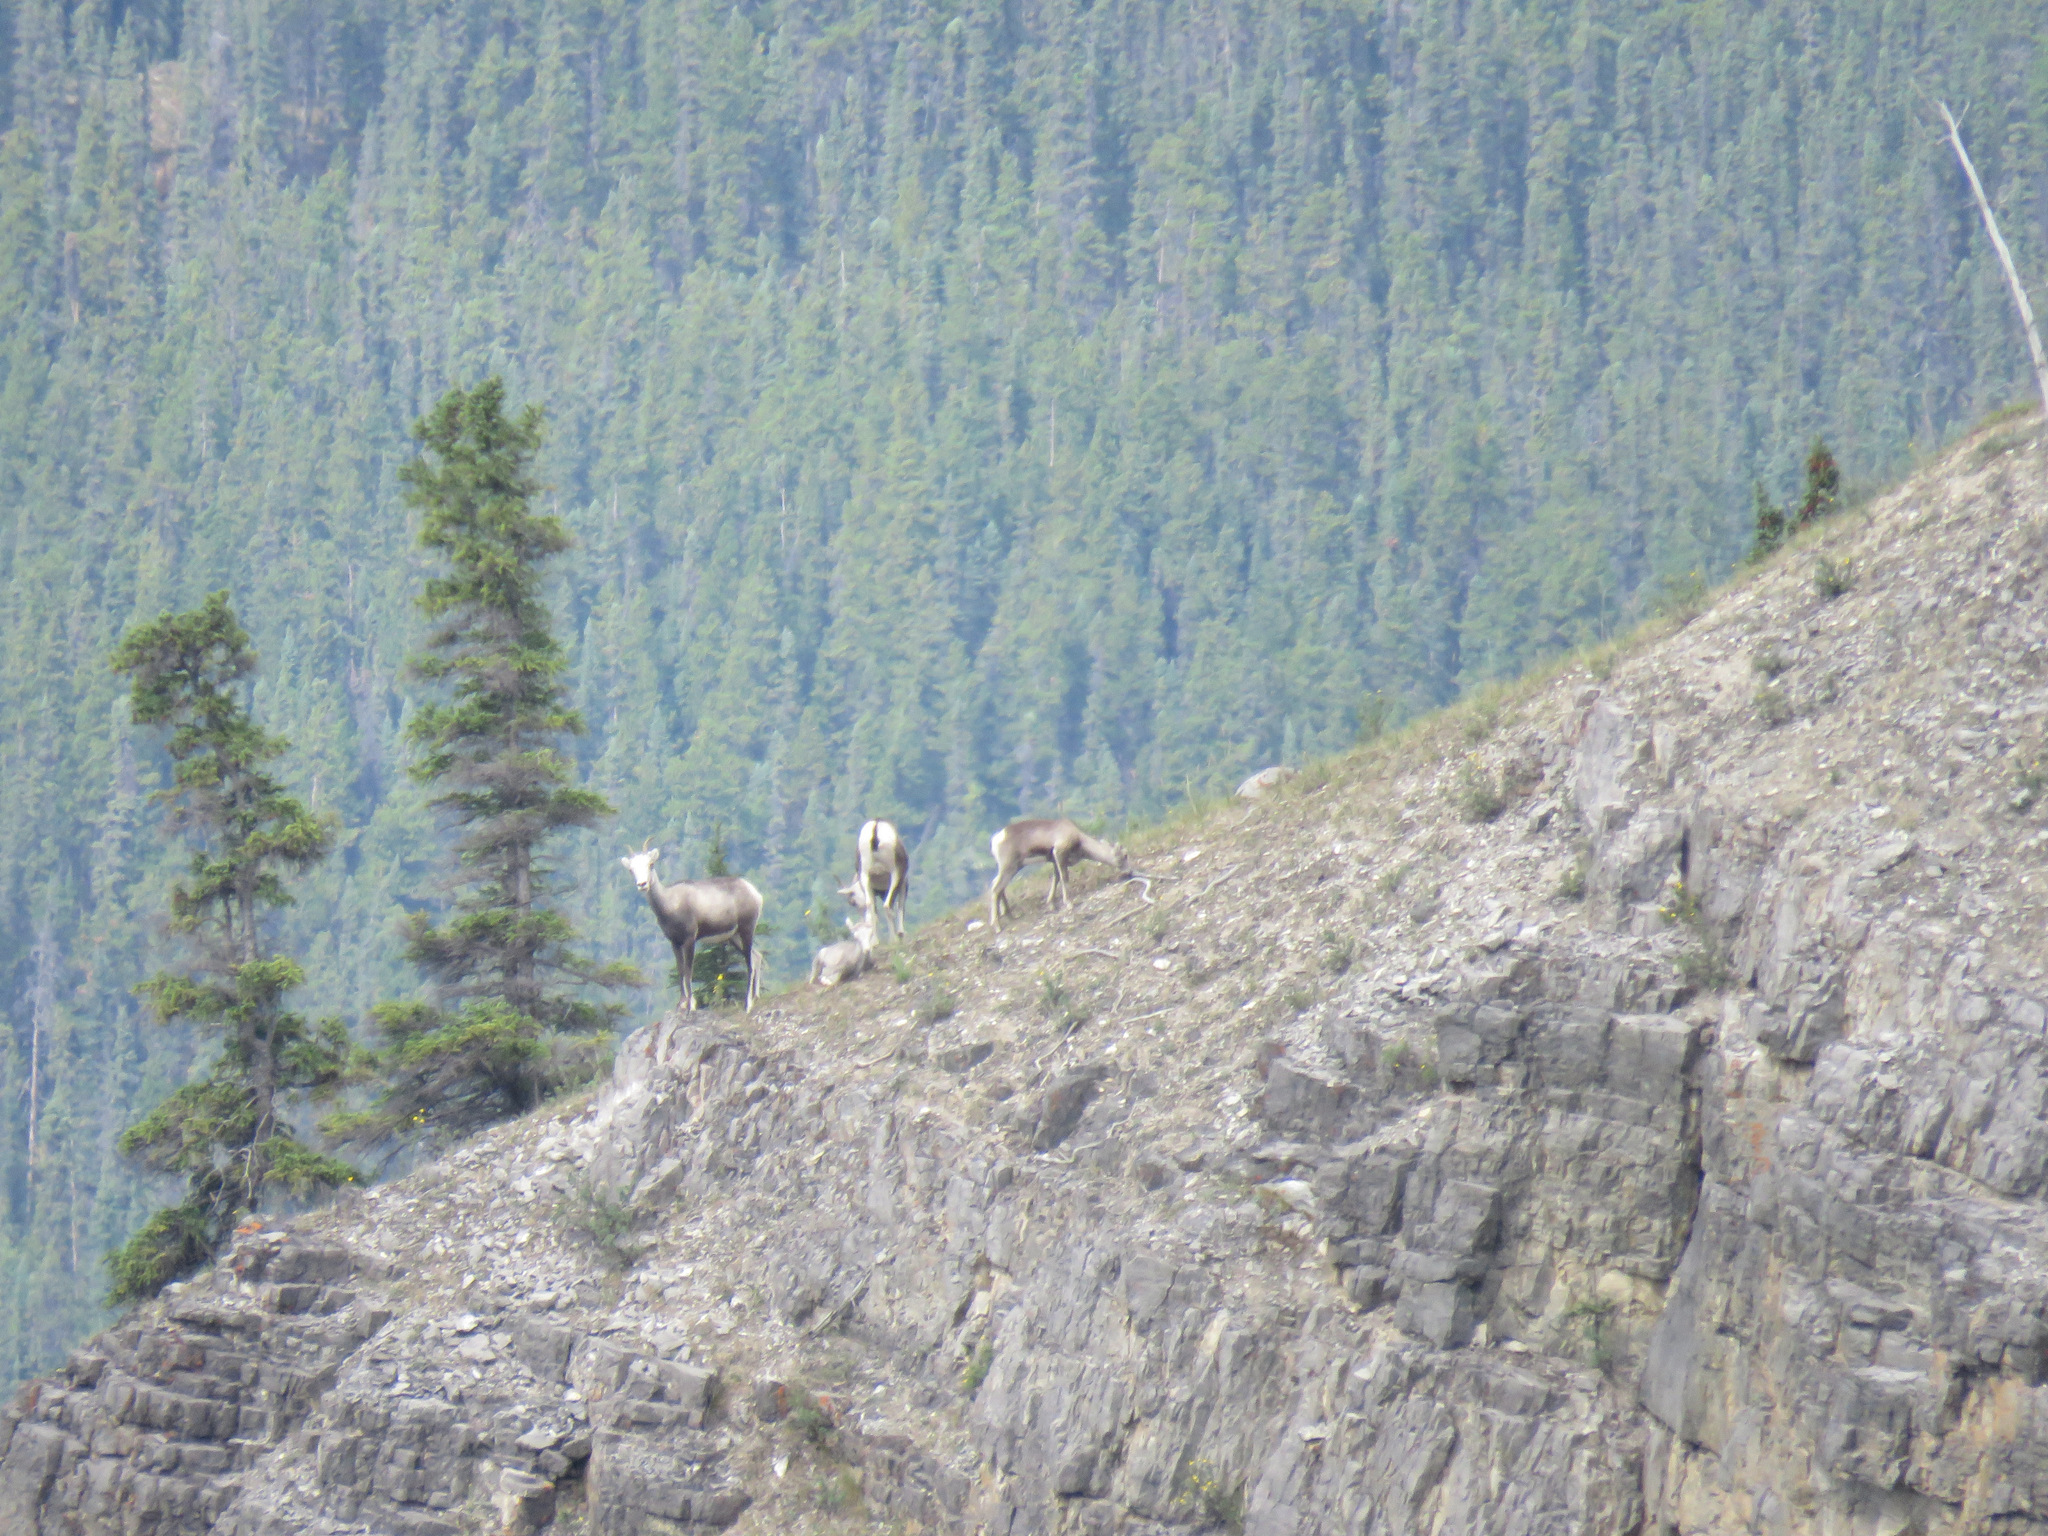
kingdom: Animalia
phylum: Chordata
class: Mammalia
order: Artiodactyla
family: Bovidae
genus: Ovis
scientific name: Ovis dalli
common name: Dall's sheep
